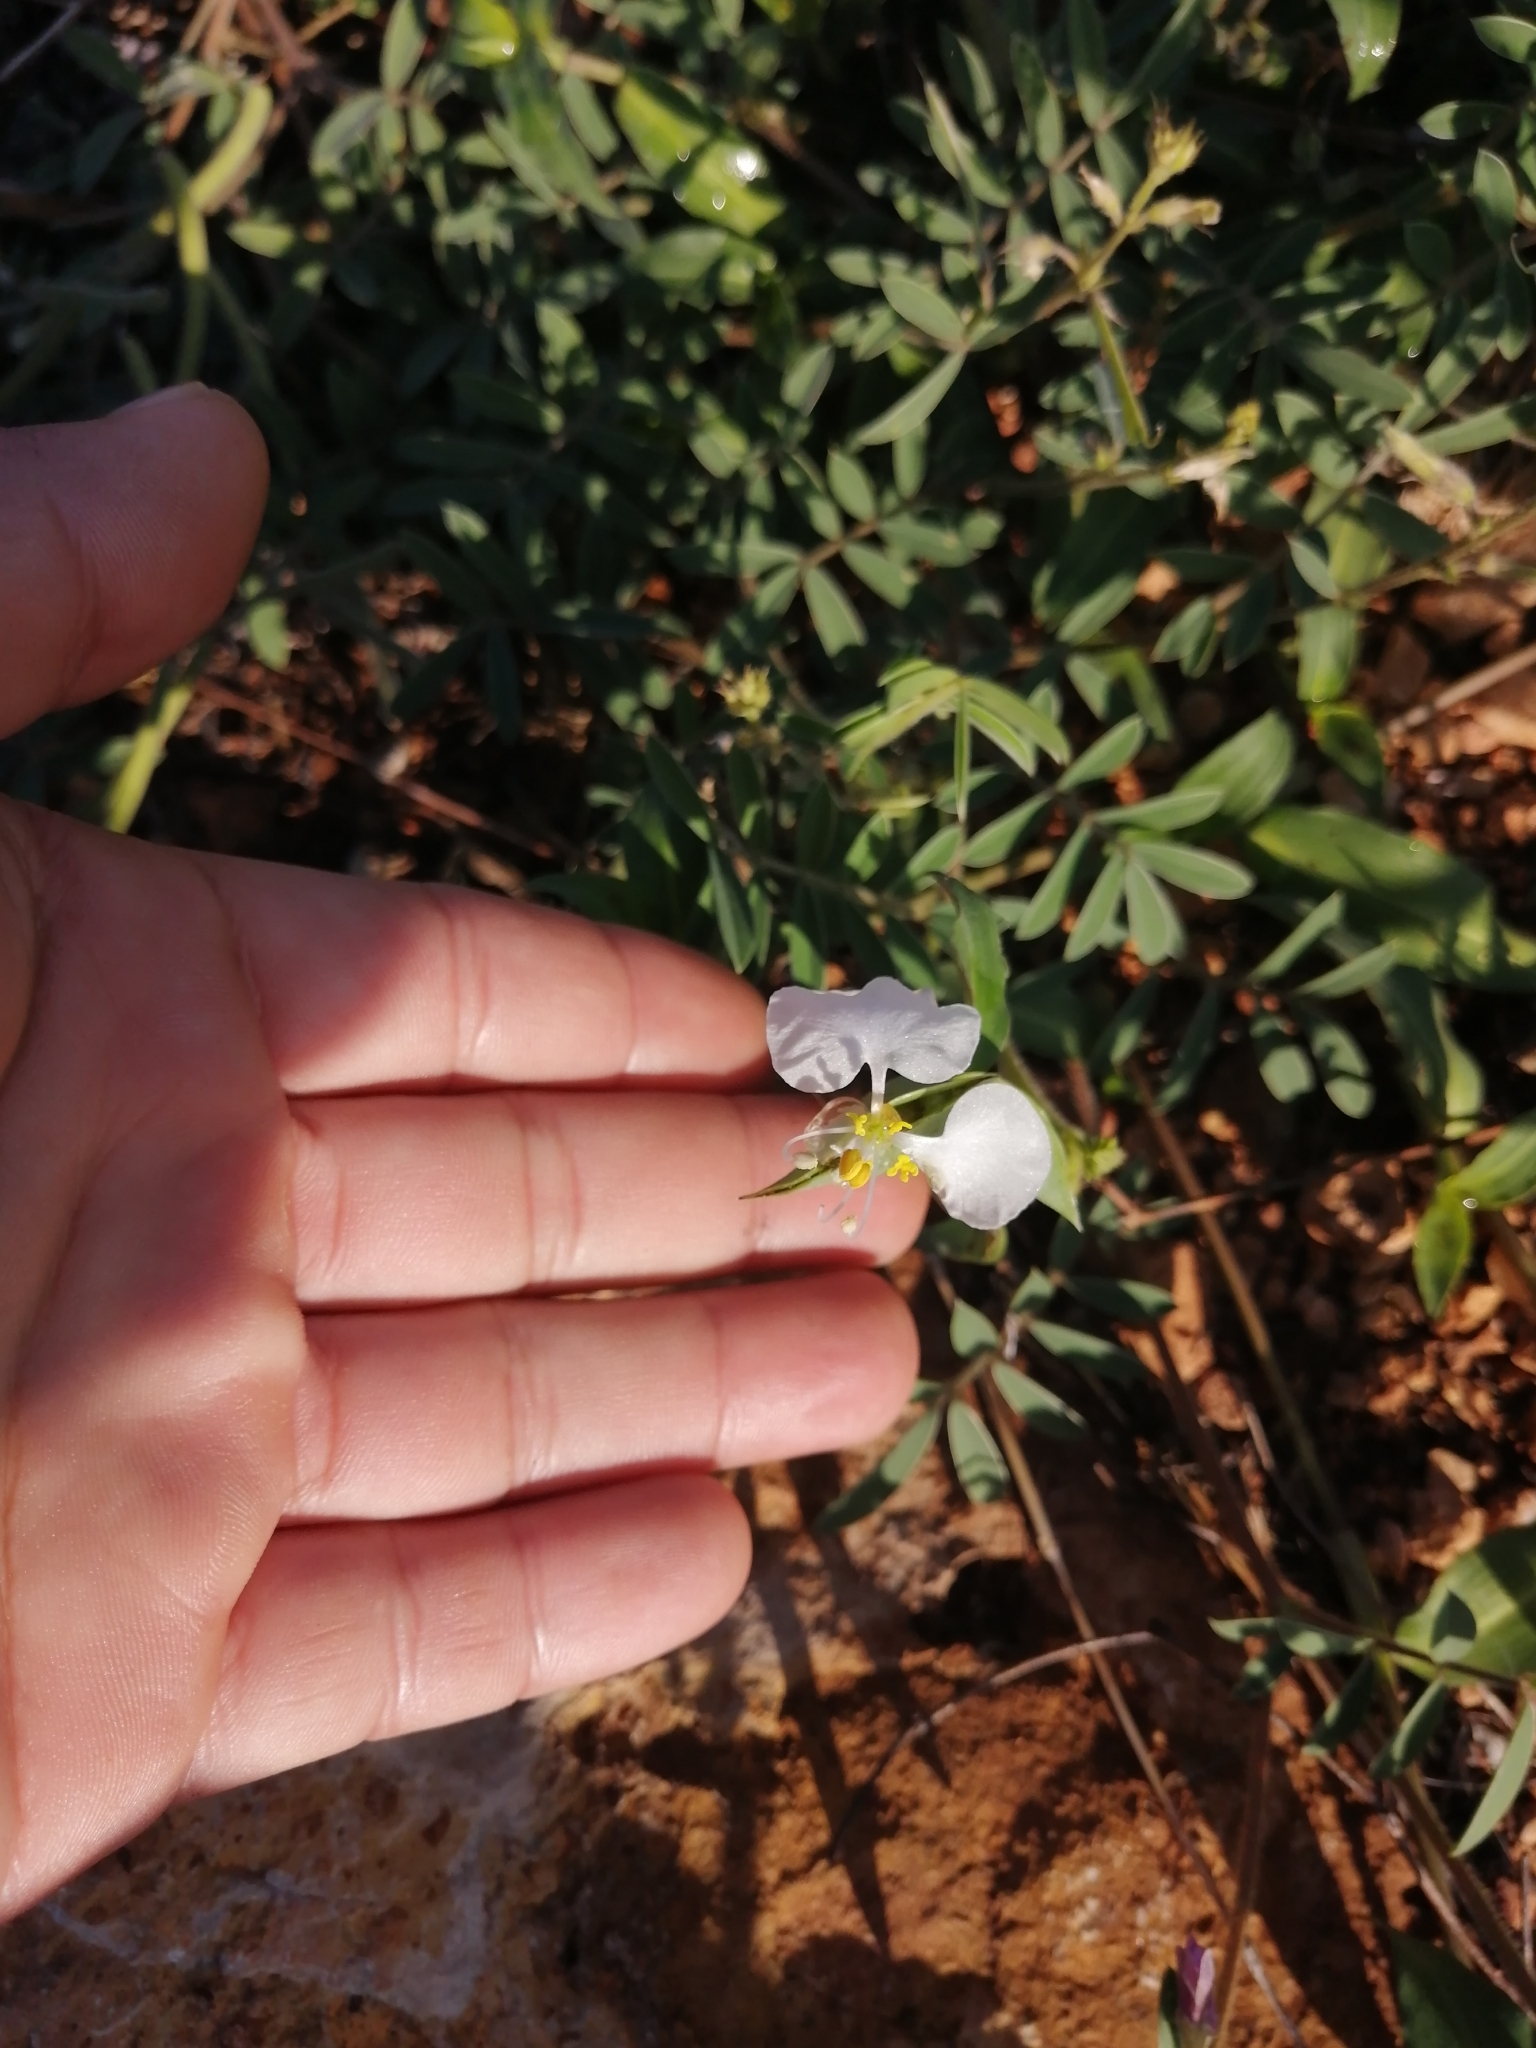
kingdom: Plantae
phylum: Tracheophyta
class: Liliopsida
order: Commelinales
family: Commelinaceae
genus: Commelina
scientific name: Commelina erecta
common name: Blousel blommetjie
